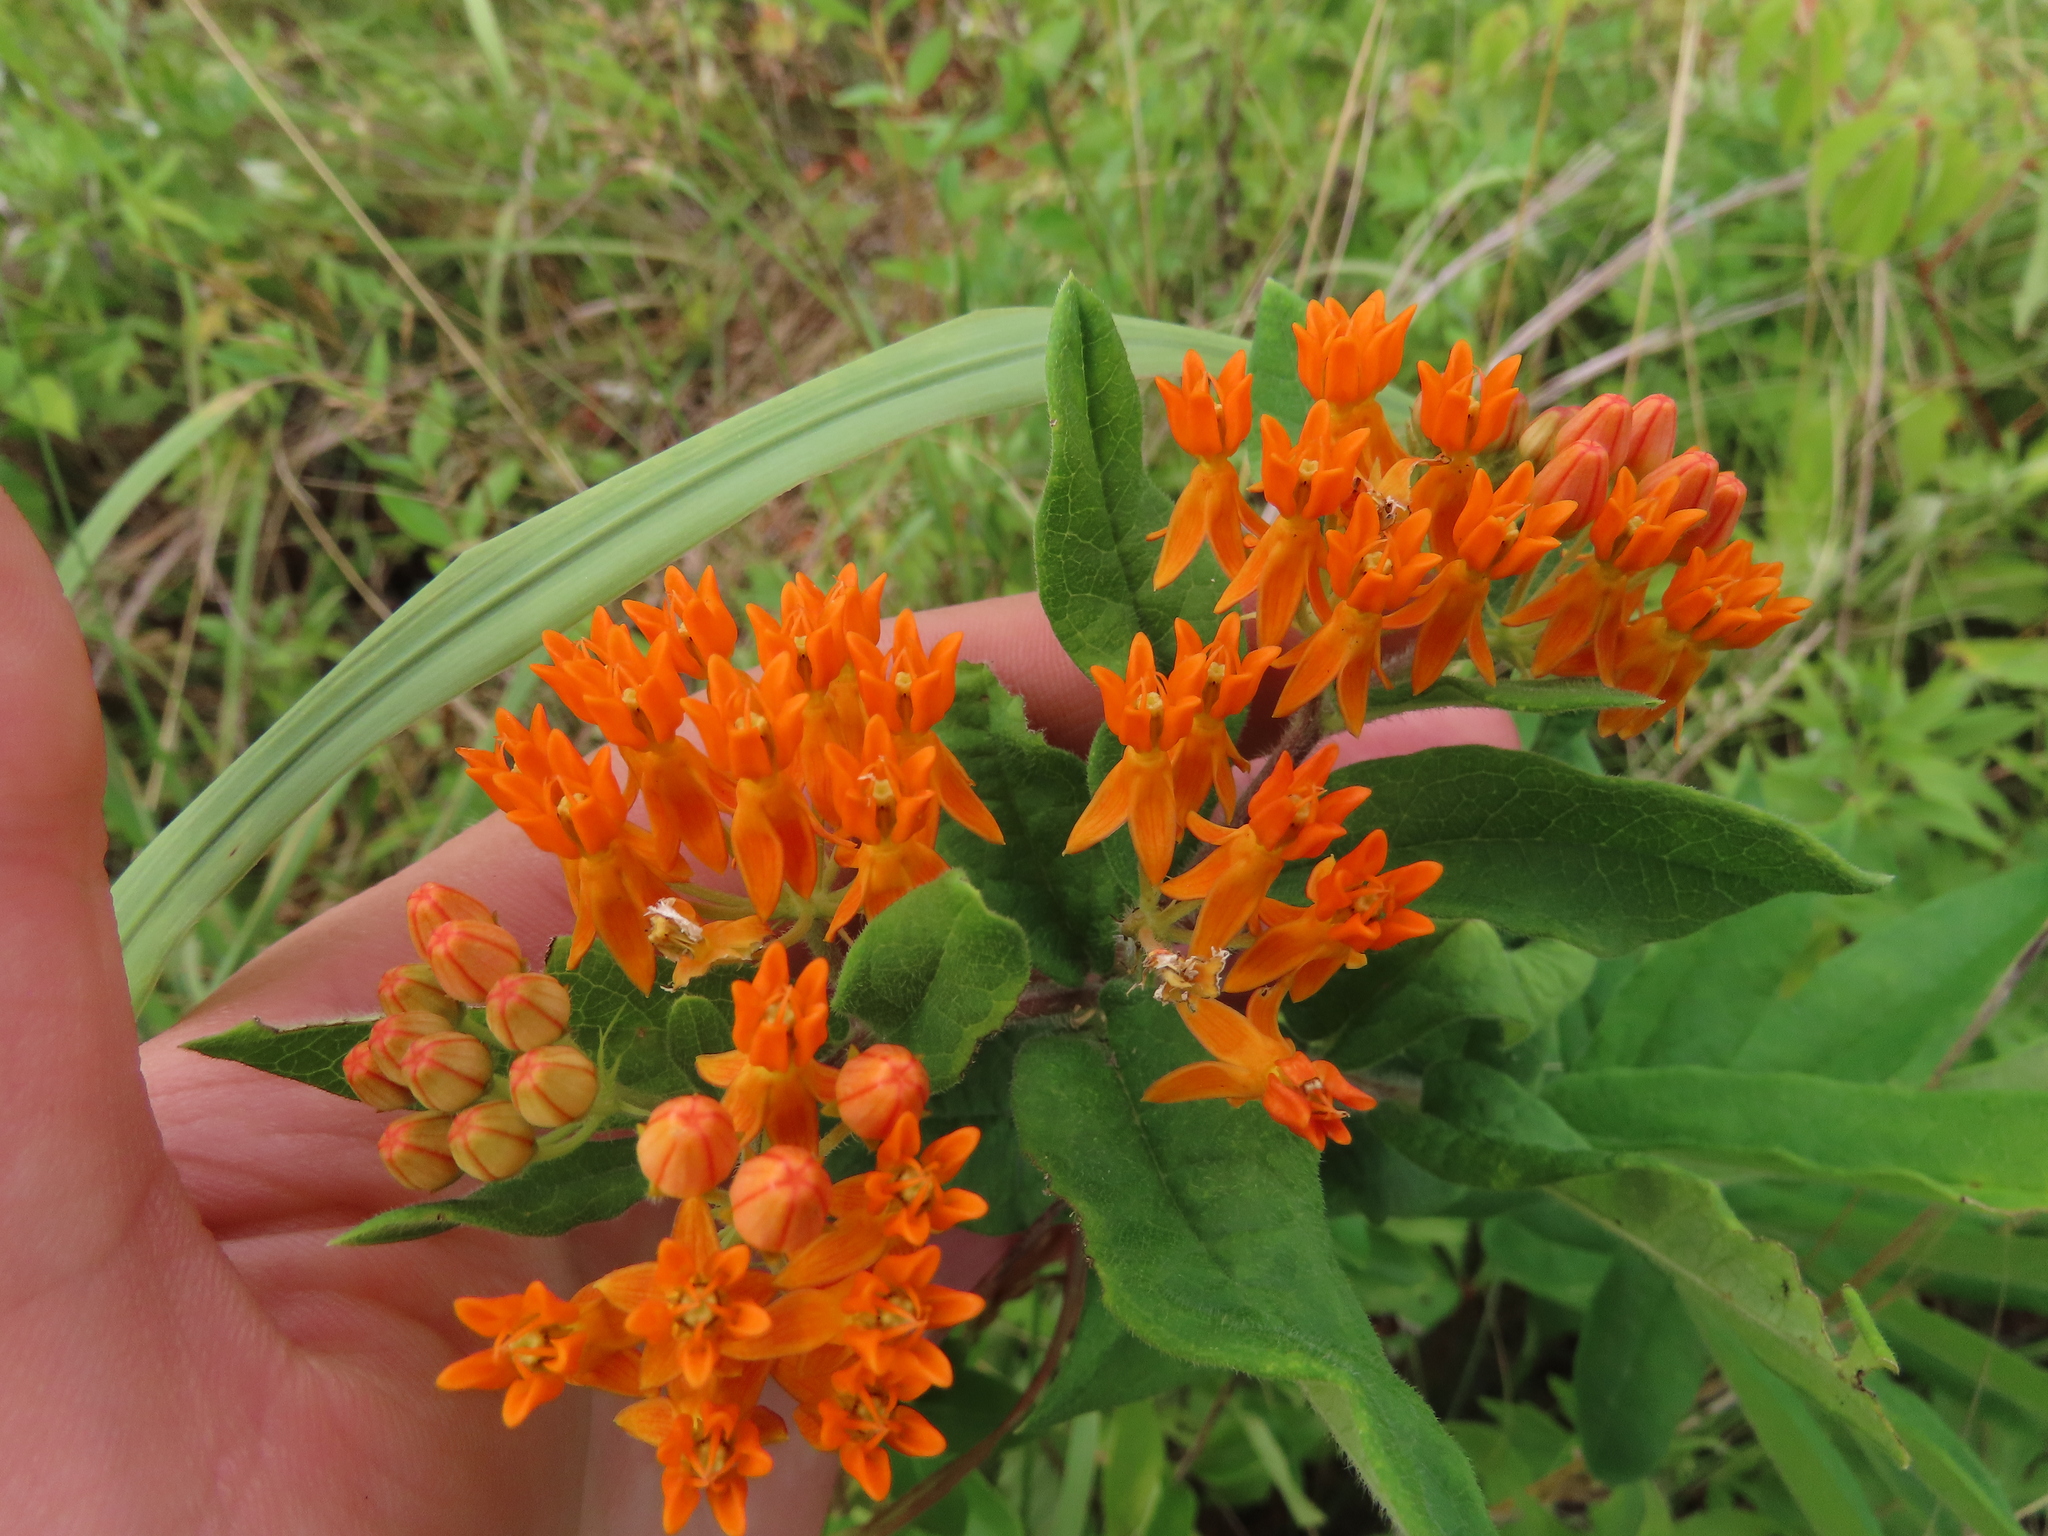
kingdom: Plantae
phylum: Tracheophyta
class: Magnoliopsida
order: Gentianales
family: Apocynaceae
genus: Asclepias
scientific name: Asclepias tuberosa
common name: Butterfly milkweed
